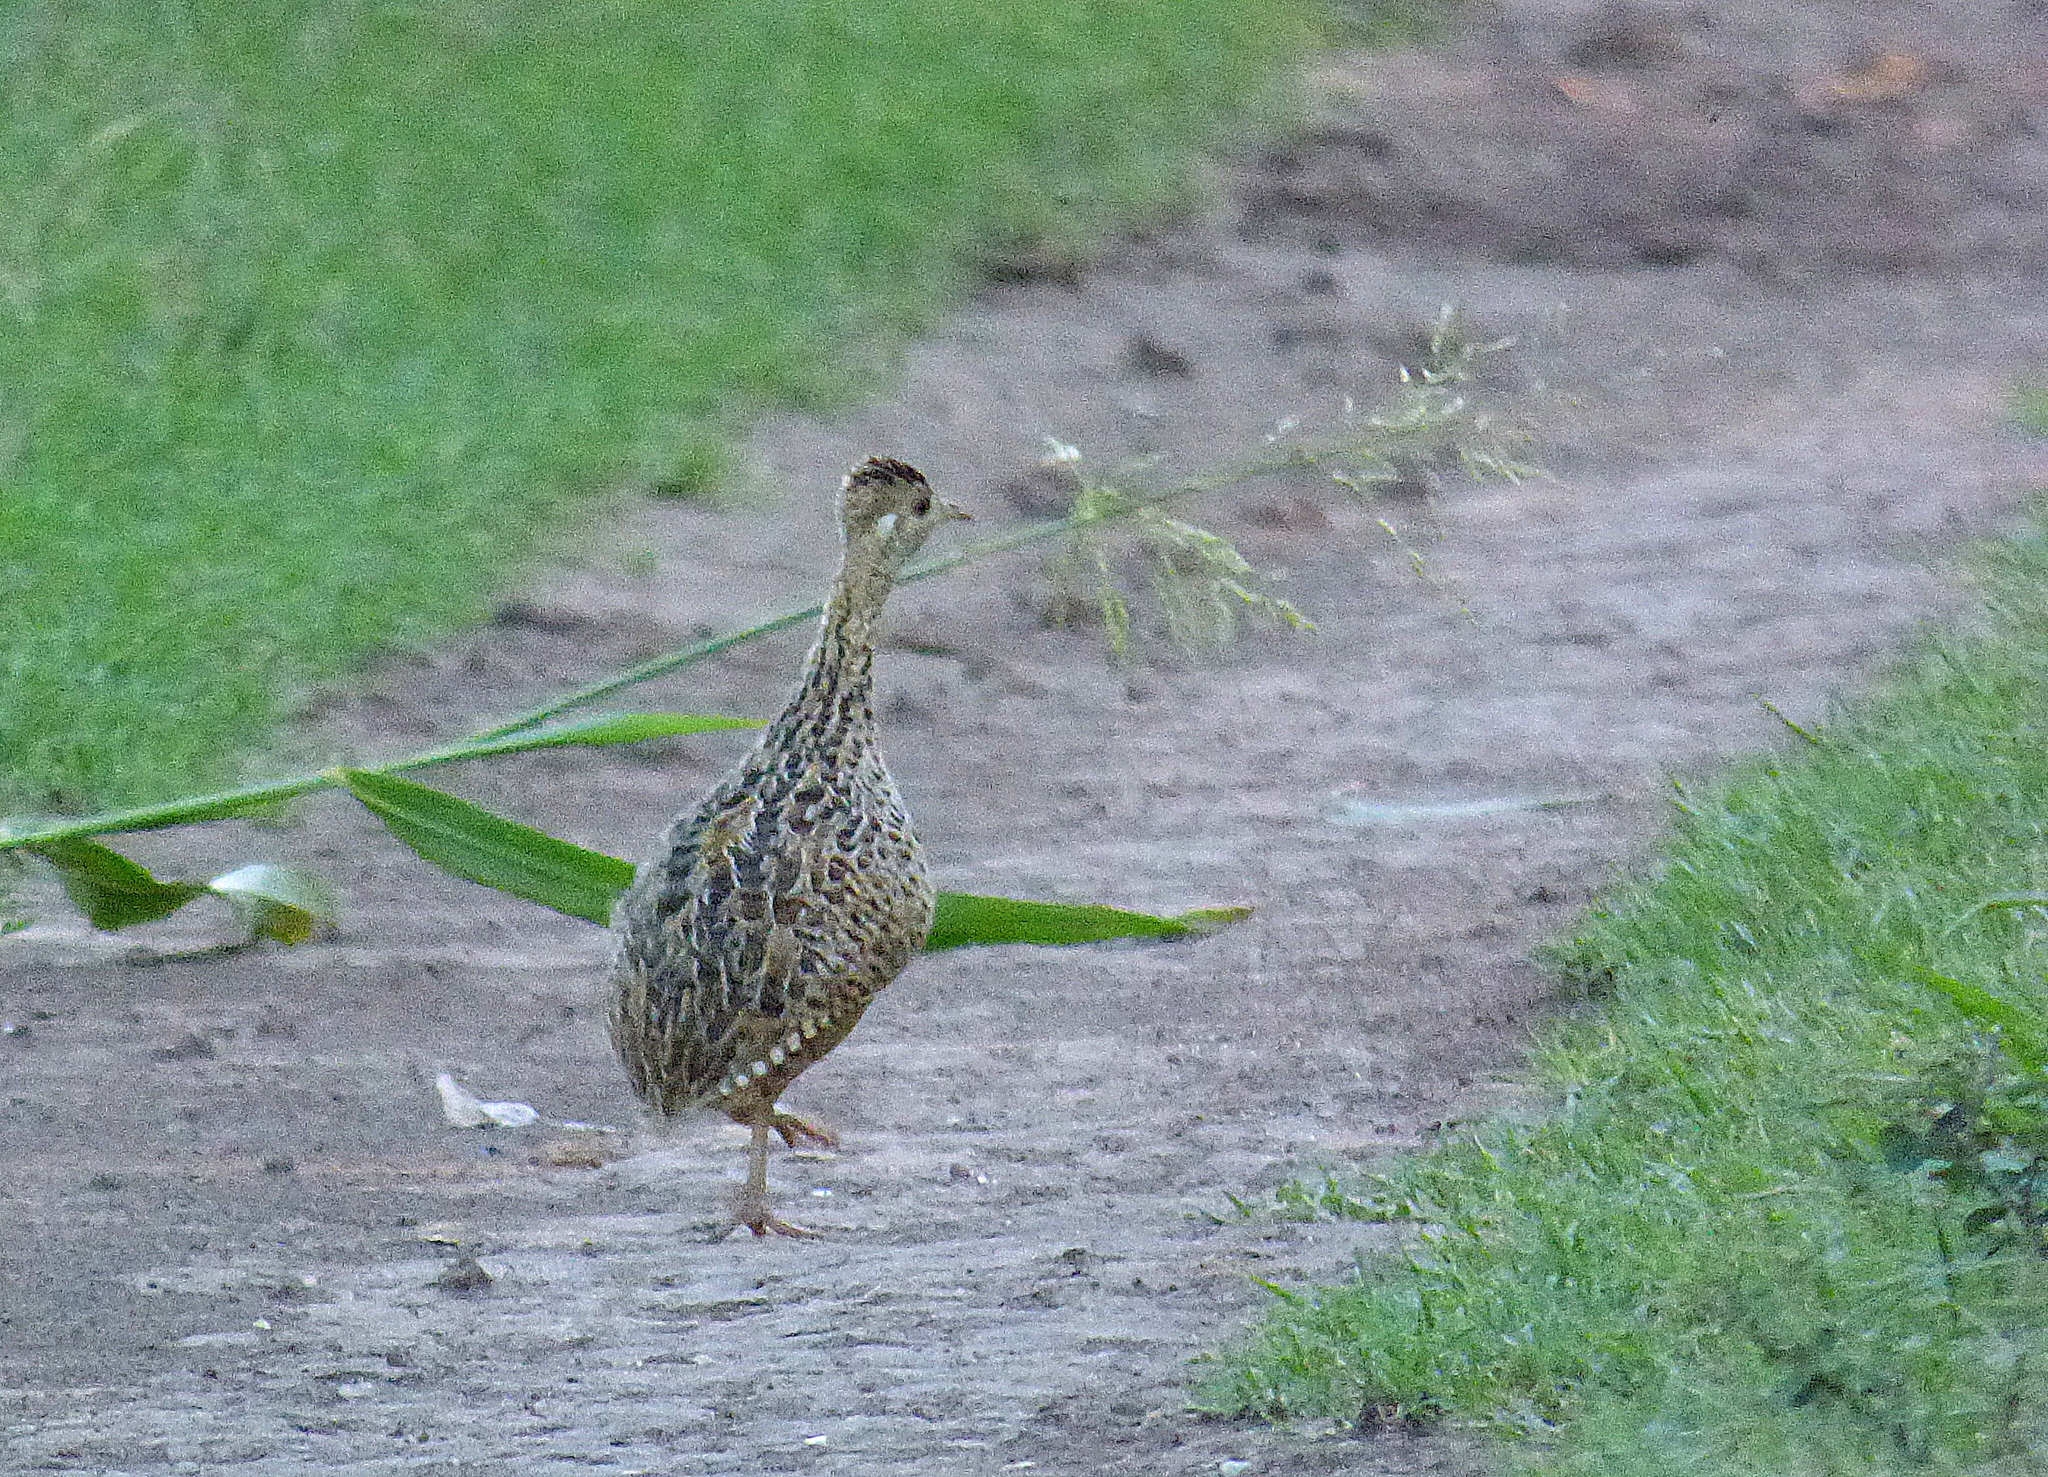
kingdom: Animalia
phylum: Chordata
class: Aves
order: Tinamiformes
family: Tinamidae
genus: Nothura
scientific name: Nothura maculosa
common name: Spotted nothura
